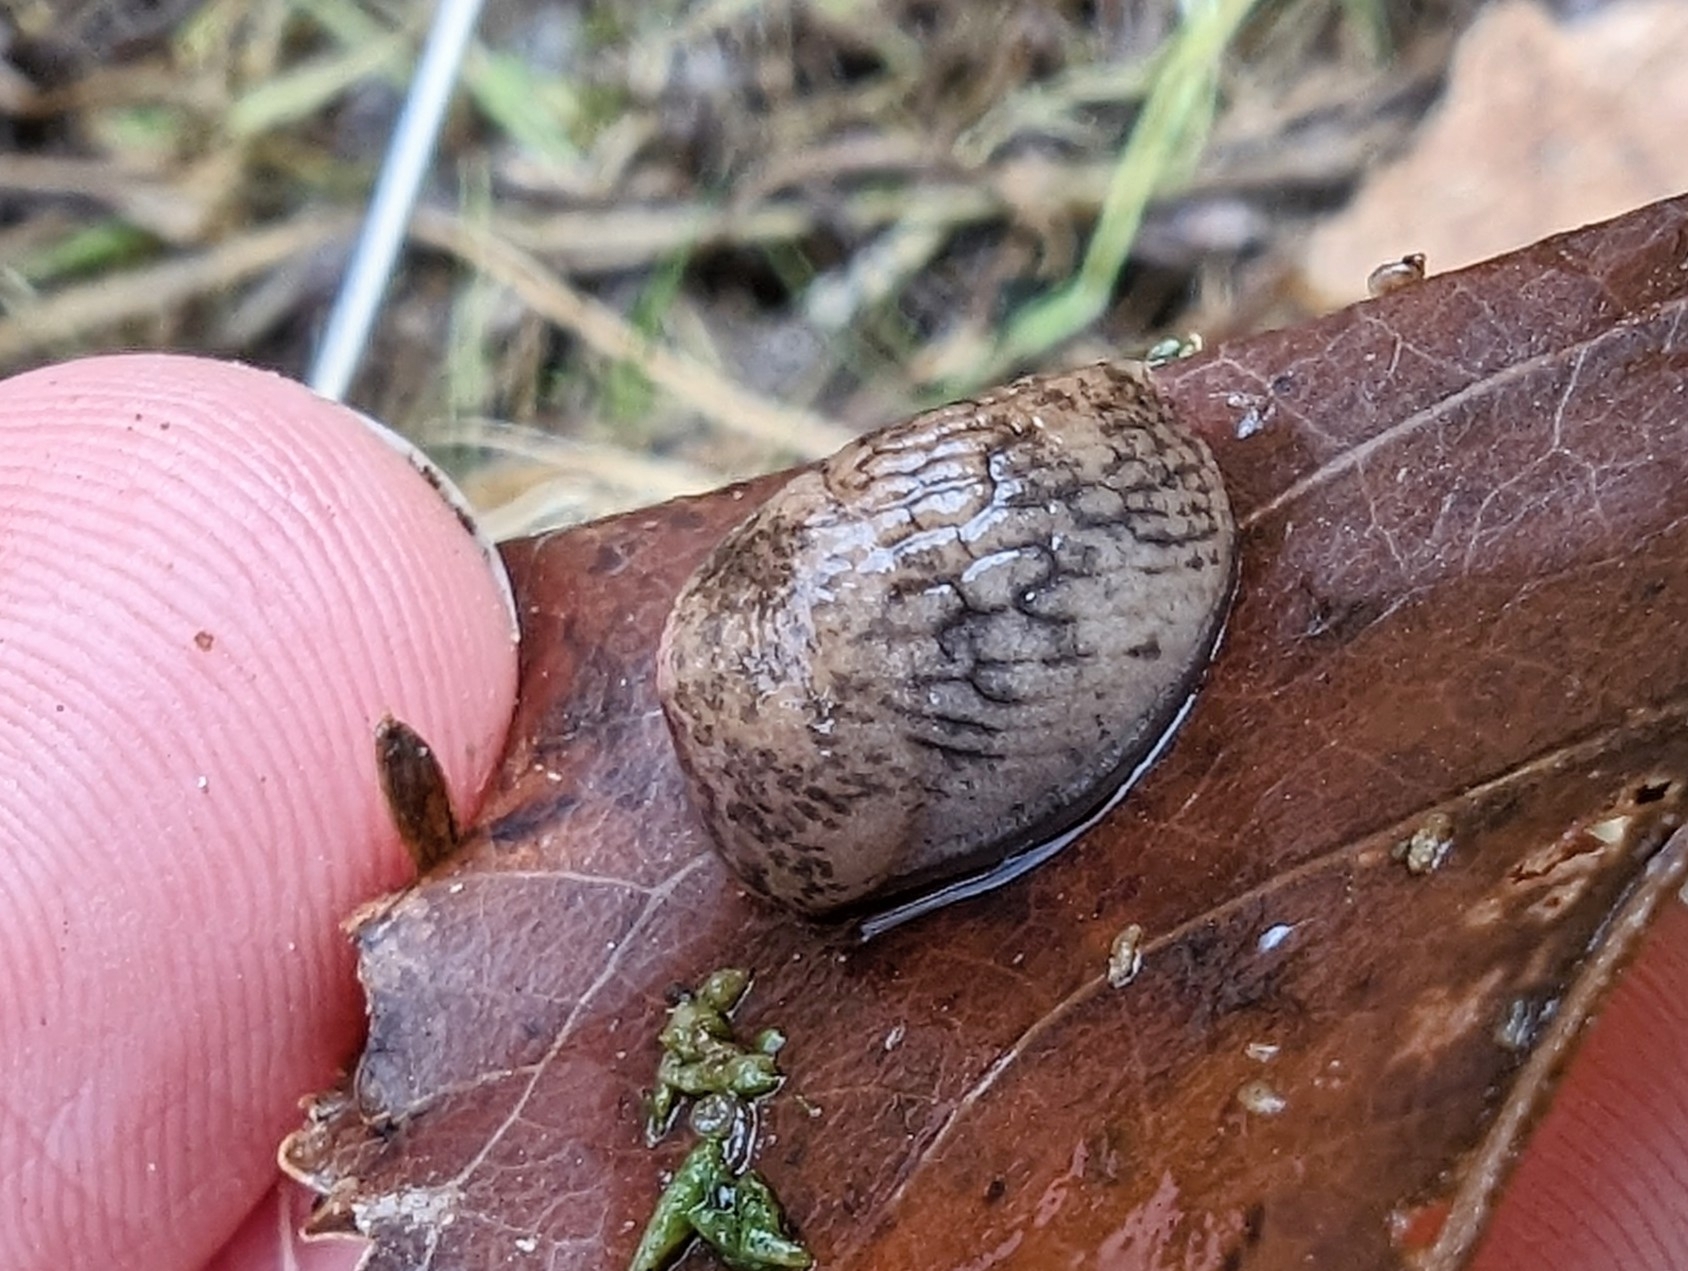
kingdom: Animalia
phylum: Mollusca
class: Gastropoda
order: Stylommatophora
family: Agriolimacidae
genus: Deroceras
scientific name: Deroceras reticulatum
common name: Gray field slug
